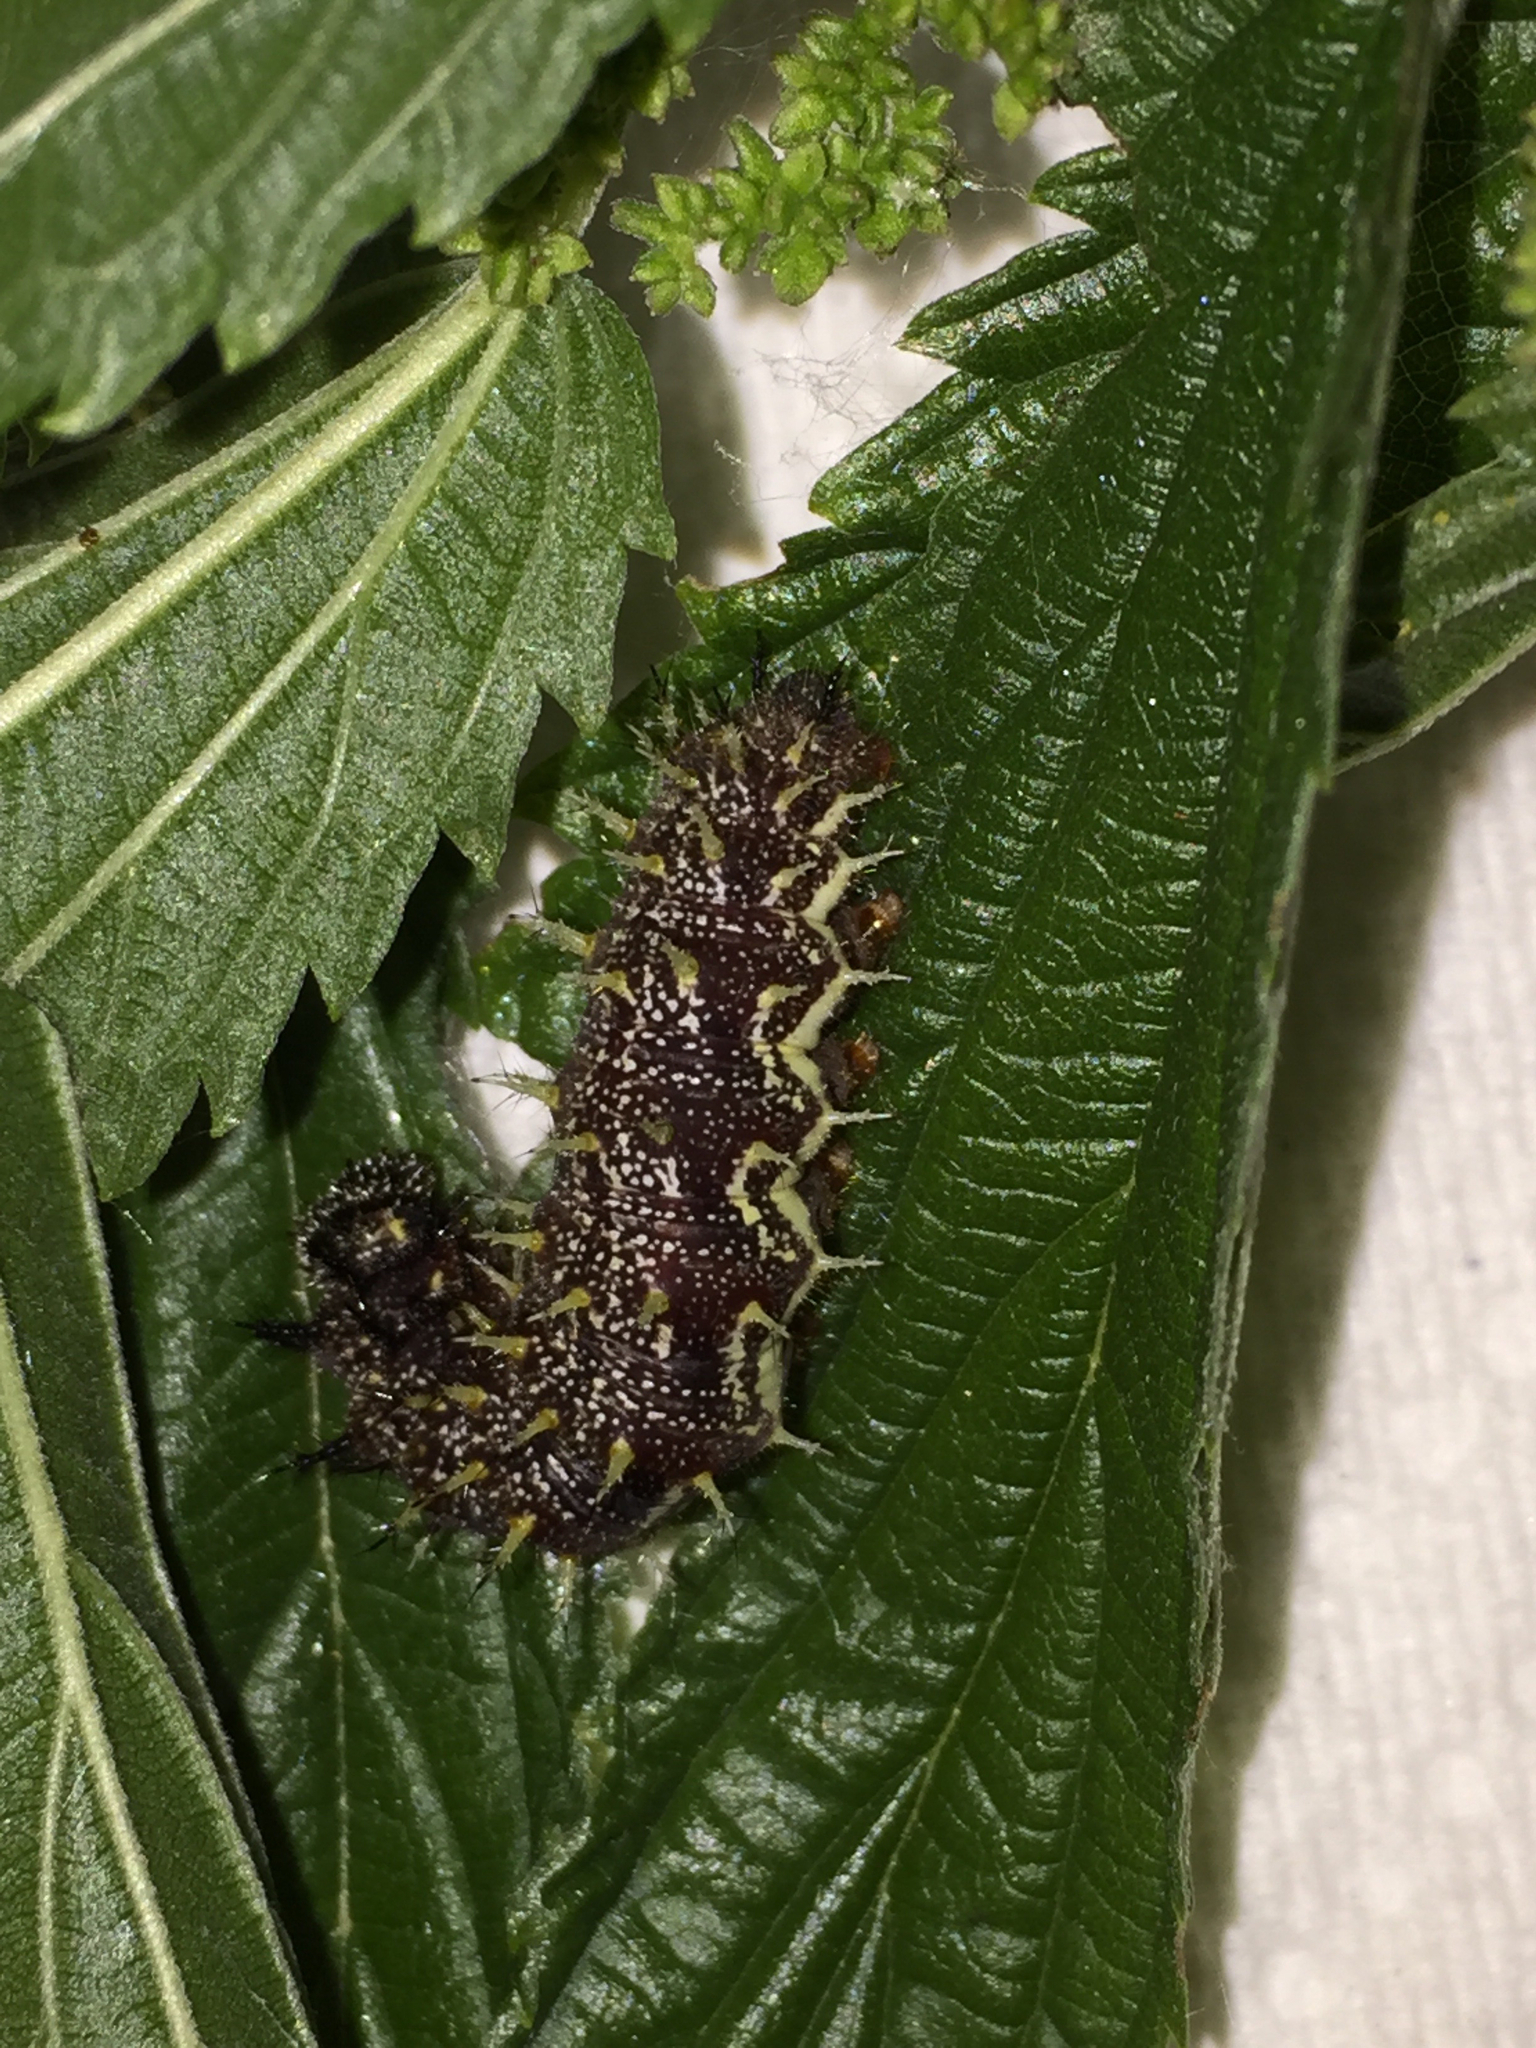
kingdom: Animalia
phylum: Arthropoda
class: Insecta
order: Lepidoptera
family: Nymphalidae
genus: Vanessa
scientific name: Vanessa atalanta
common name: Red admiral
